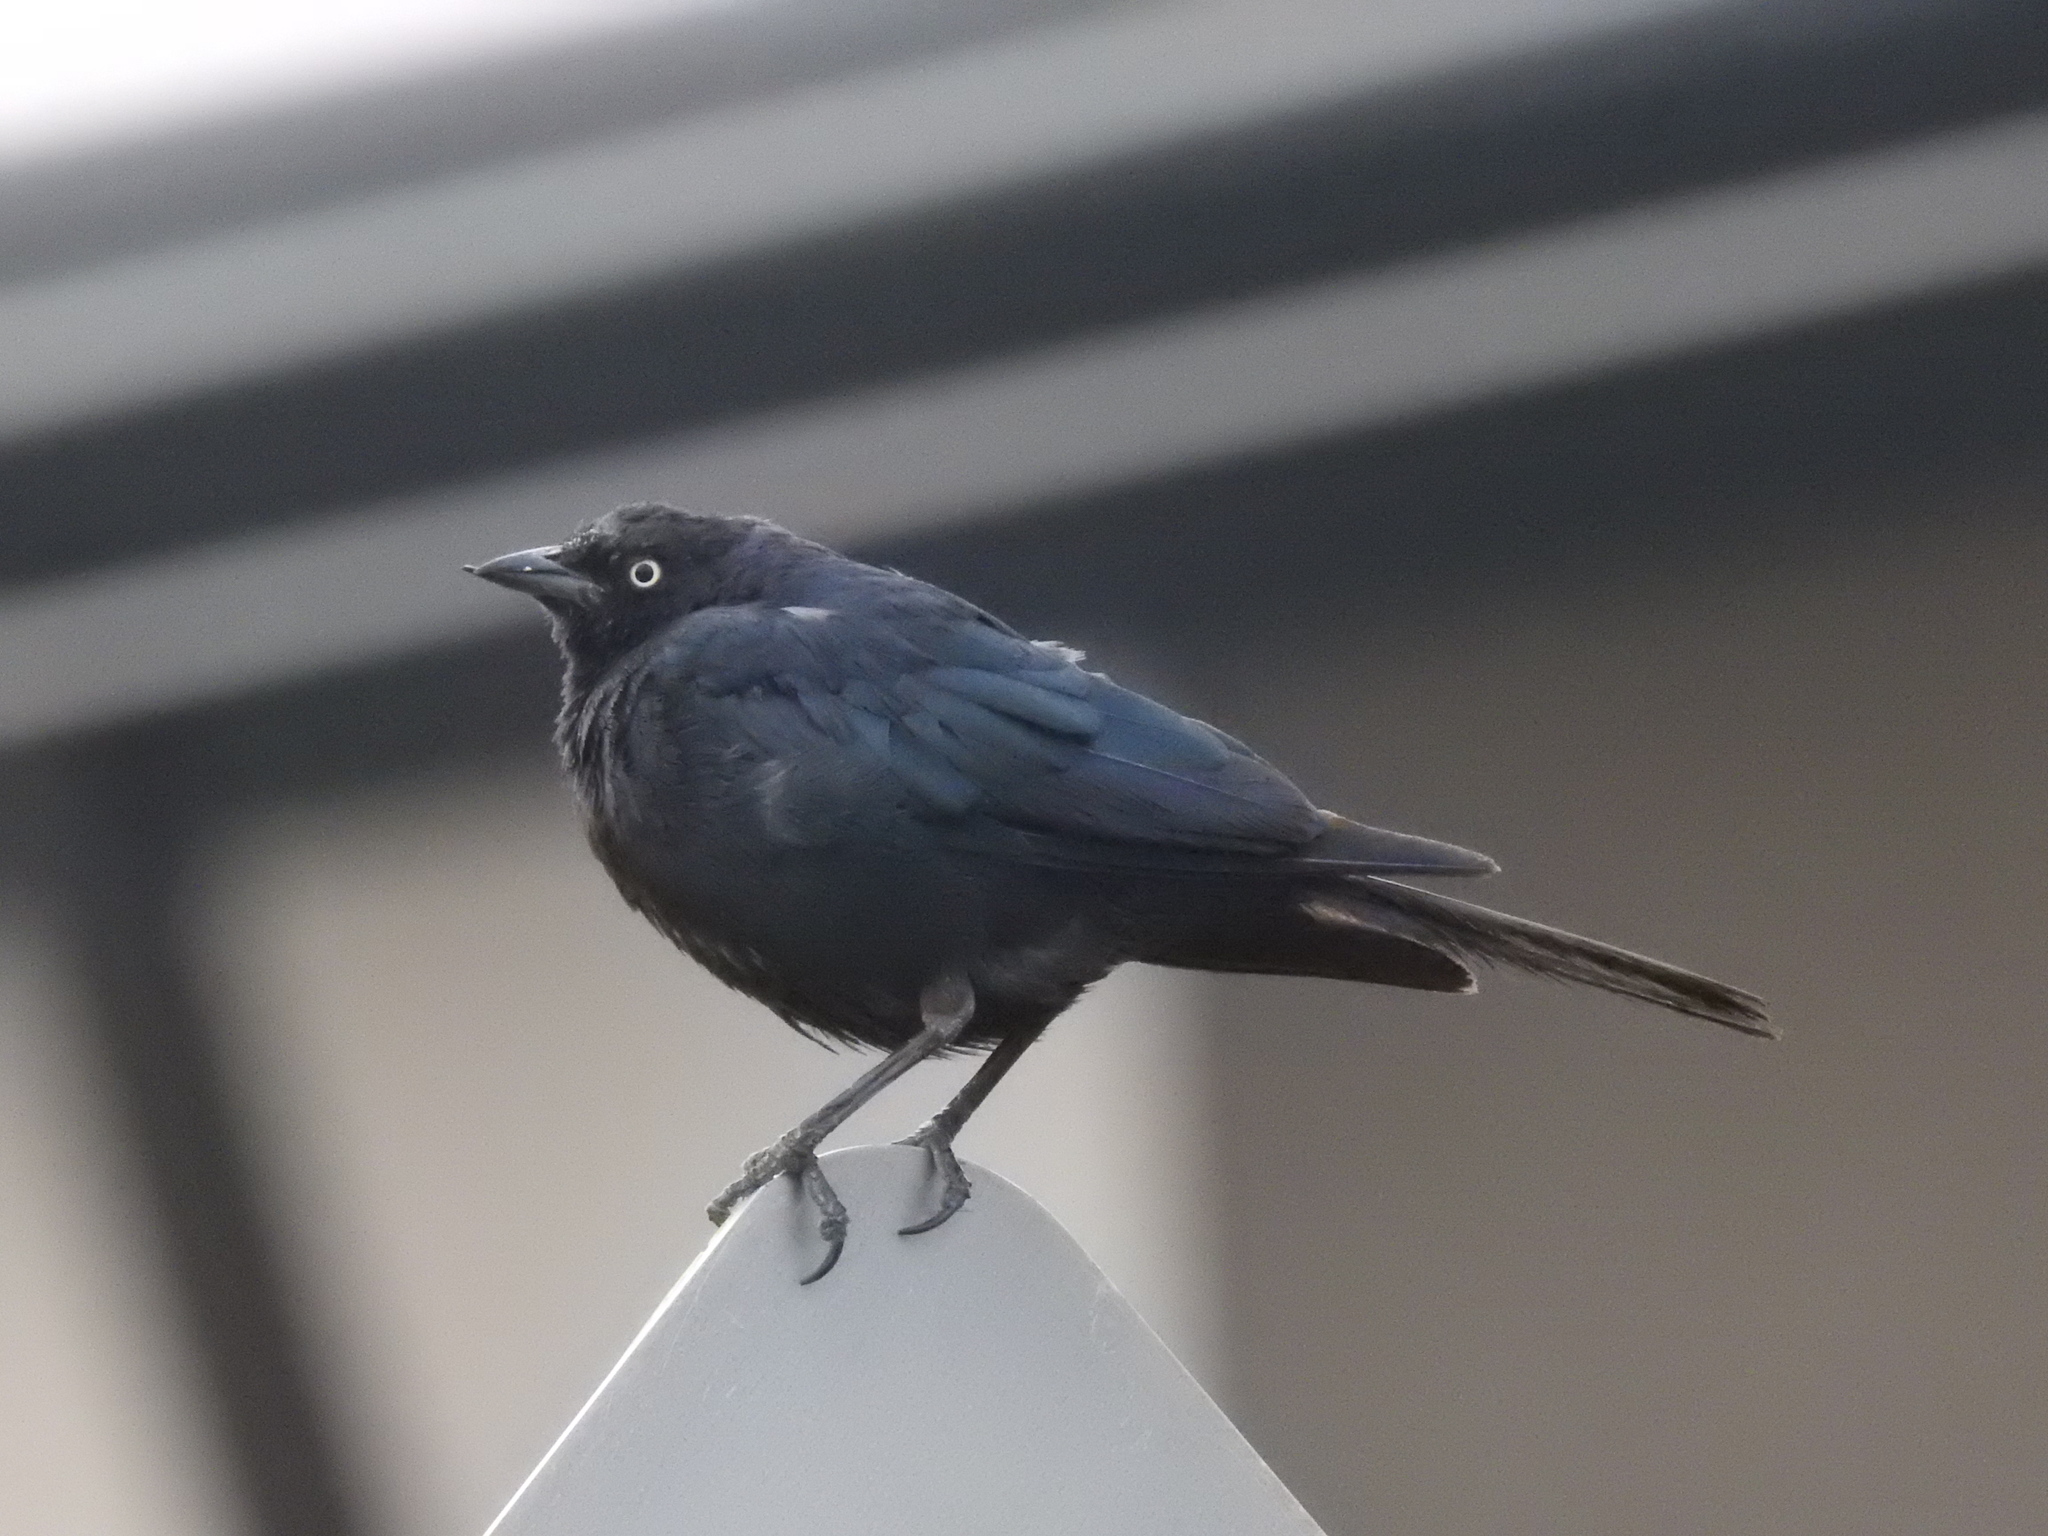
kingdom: Animalia
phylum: Chordata
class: Aves
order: Passeriformes
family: Icteridae
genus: Euphagus
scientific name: Euphagus cyanocephalus
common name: Brewer's blackbird
